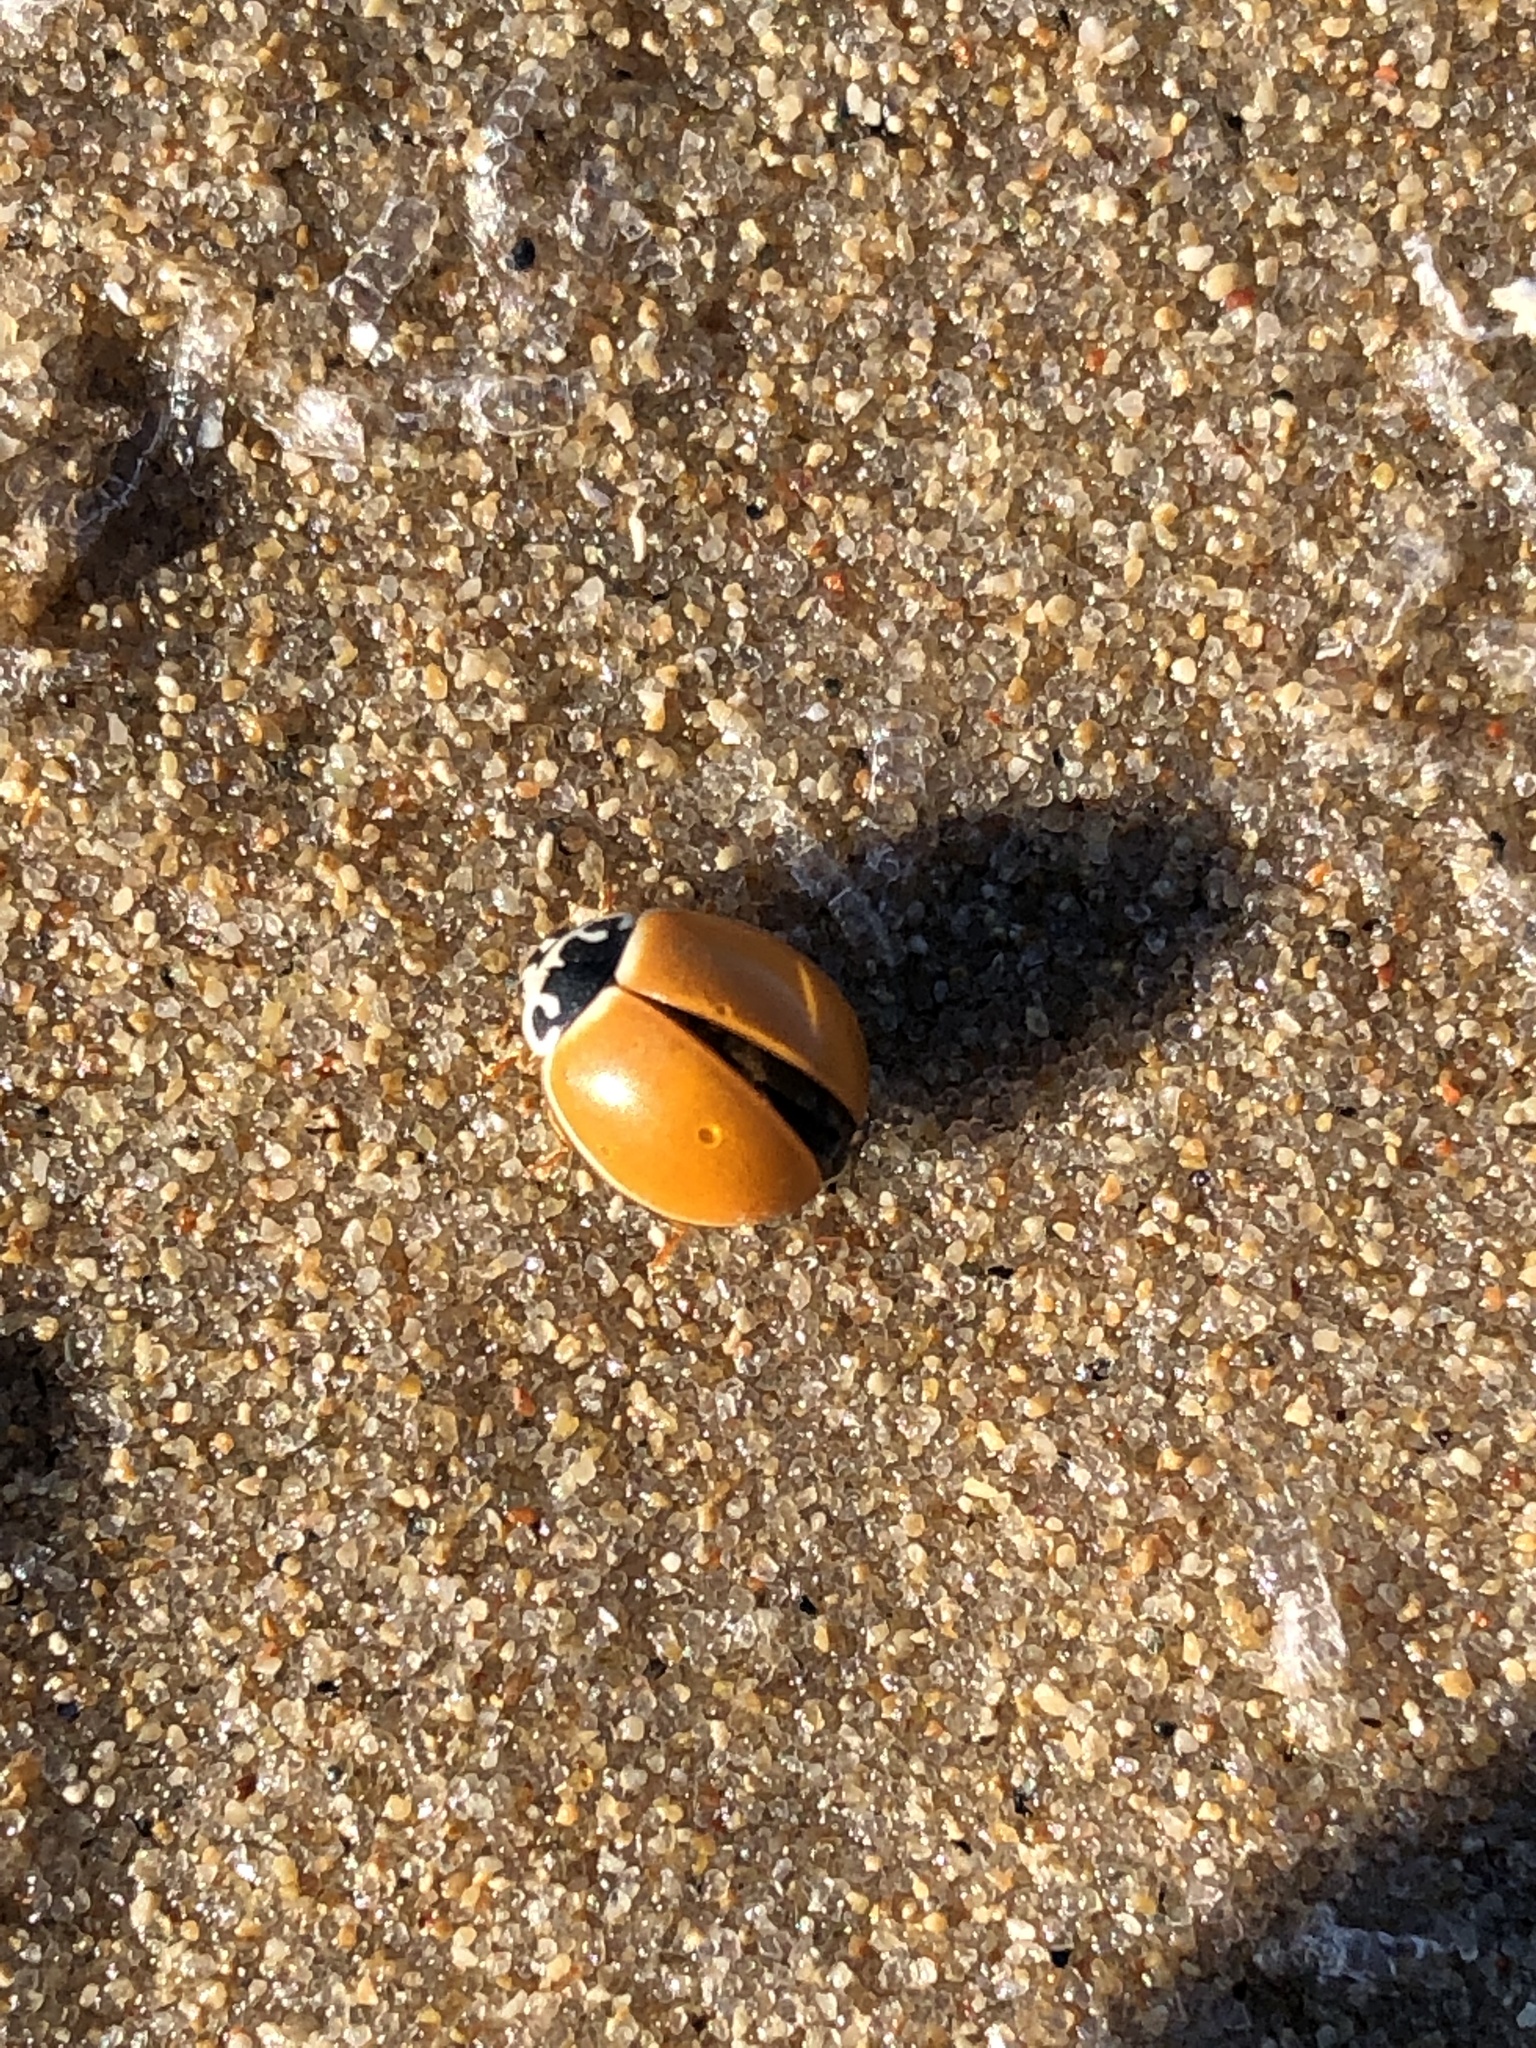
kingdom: Animalia
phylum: Arthropoda
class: Insecta
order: Coleoptera
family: Coccinellidae
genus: Cycloneda
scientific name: Cycloneda munda
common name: Polished lady beetle
